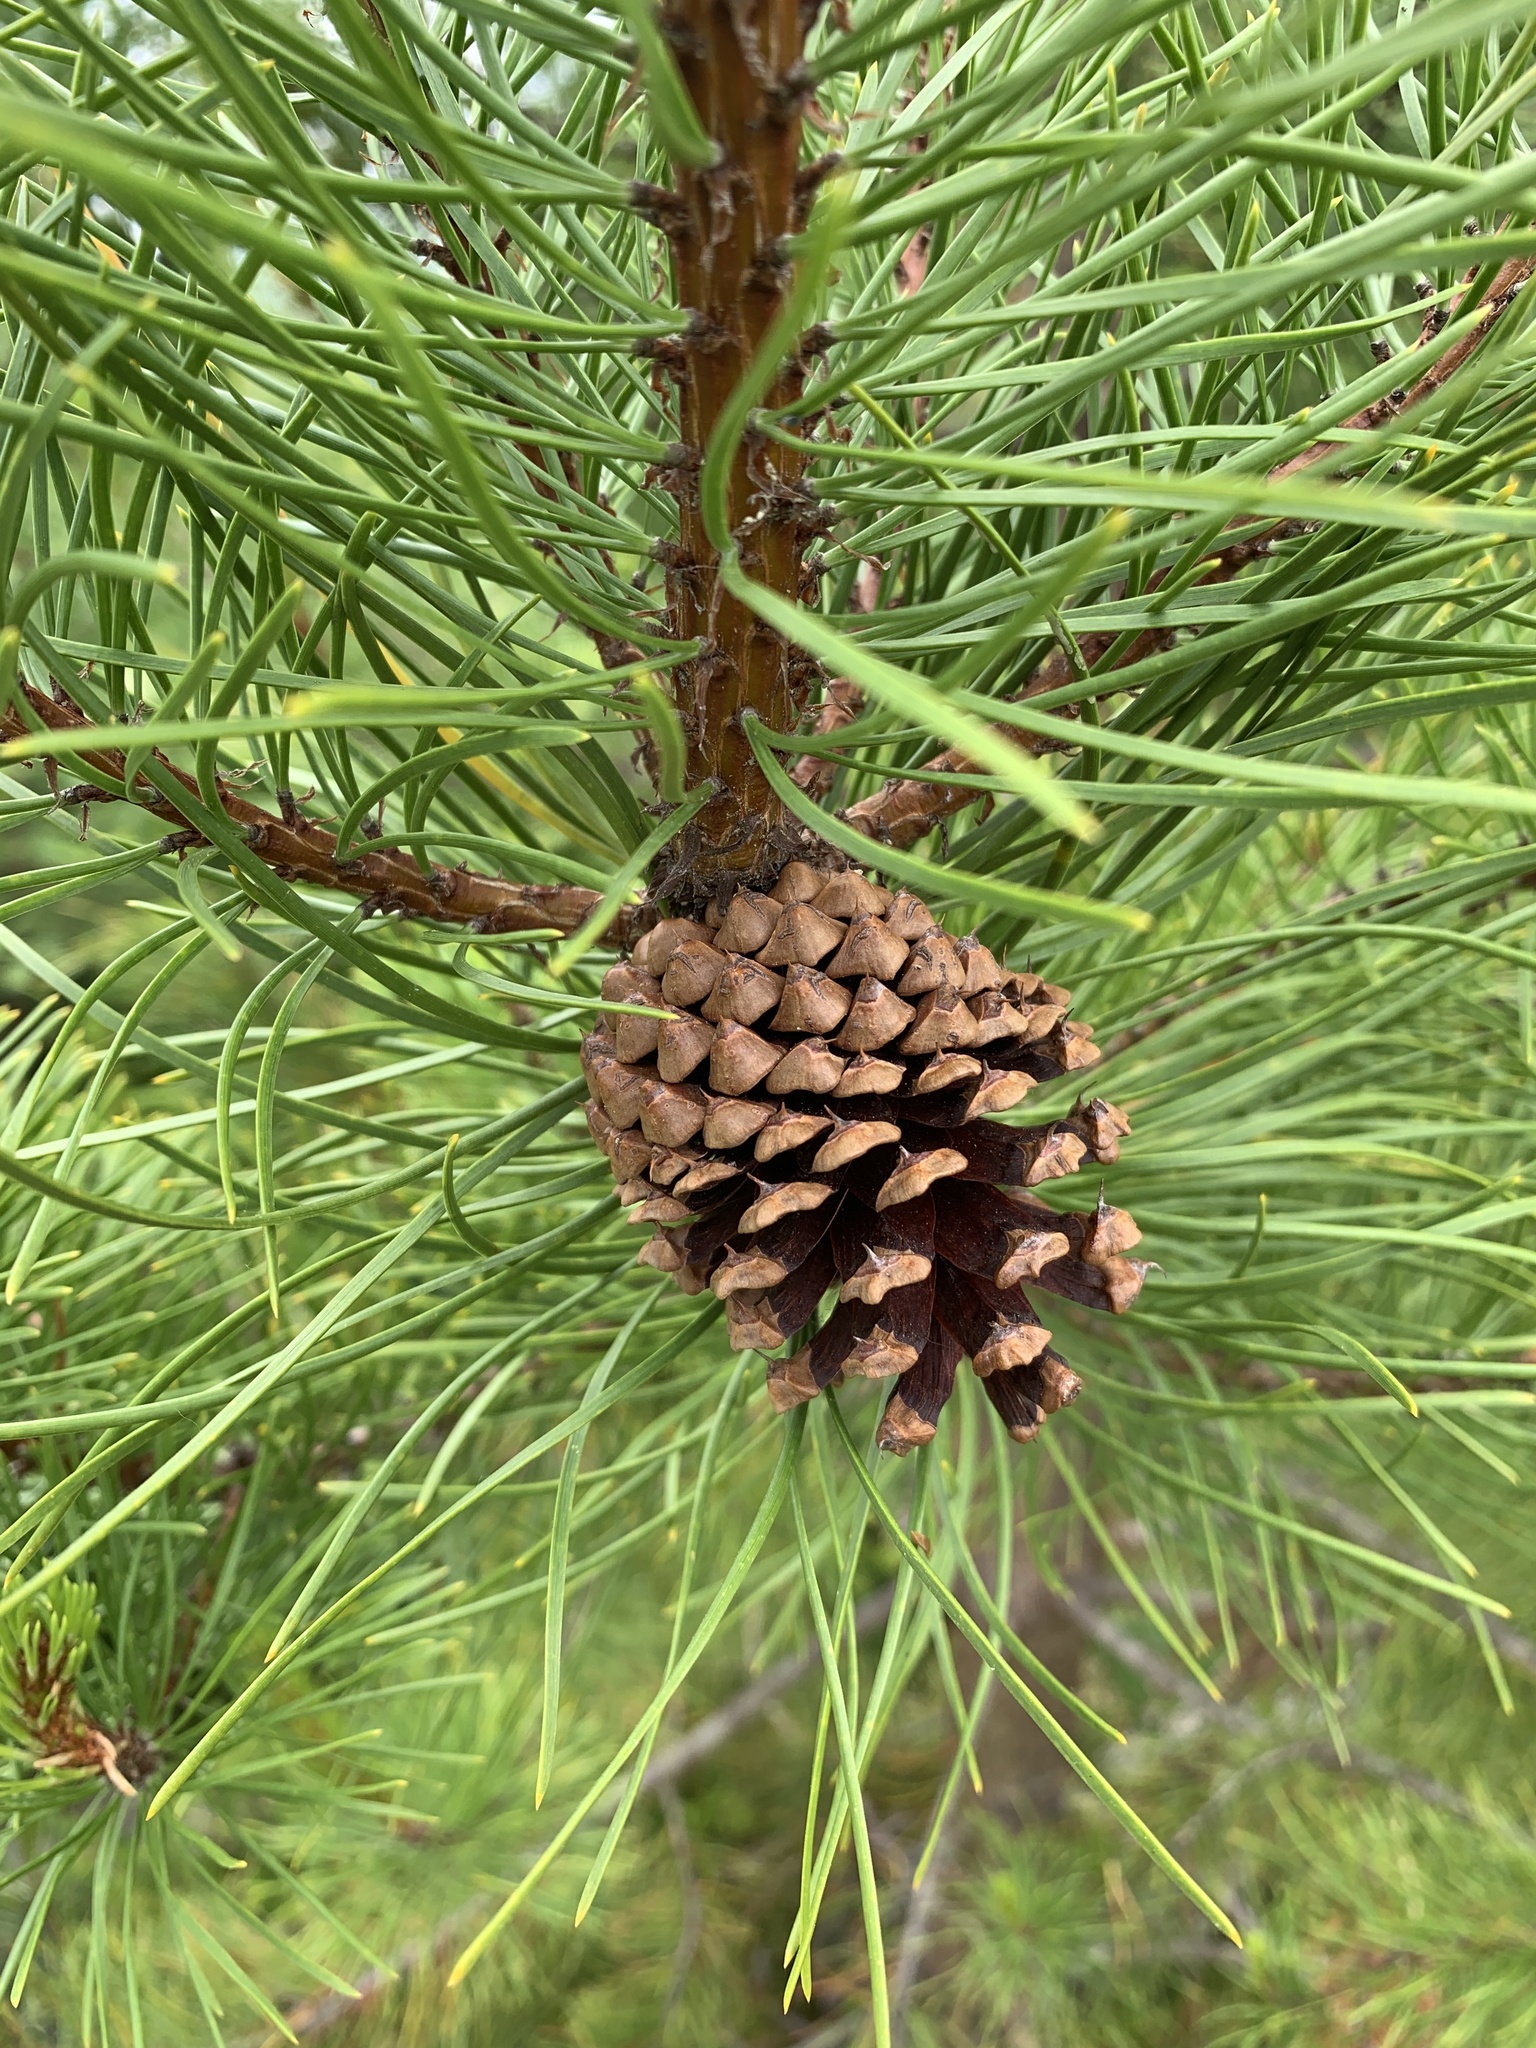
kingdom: Plantae
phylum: Tracheophyta
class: Pinopsida
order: Pinales
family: Pinaceae
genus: Pinus
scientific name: Pinus contorta
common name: Lodgepole pine
